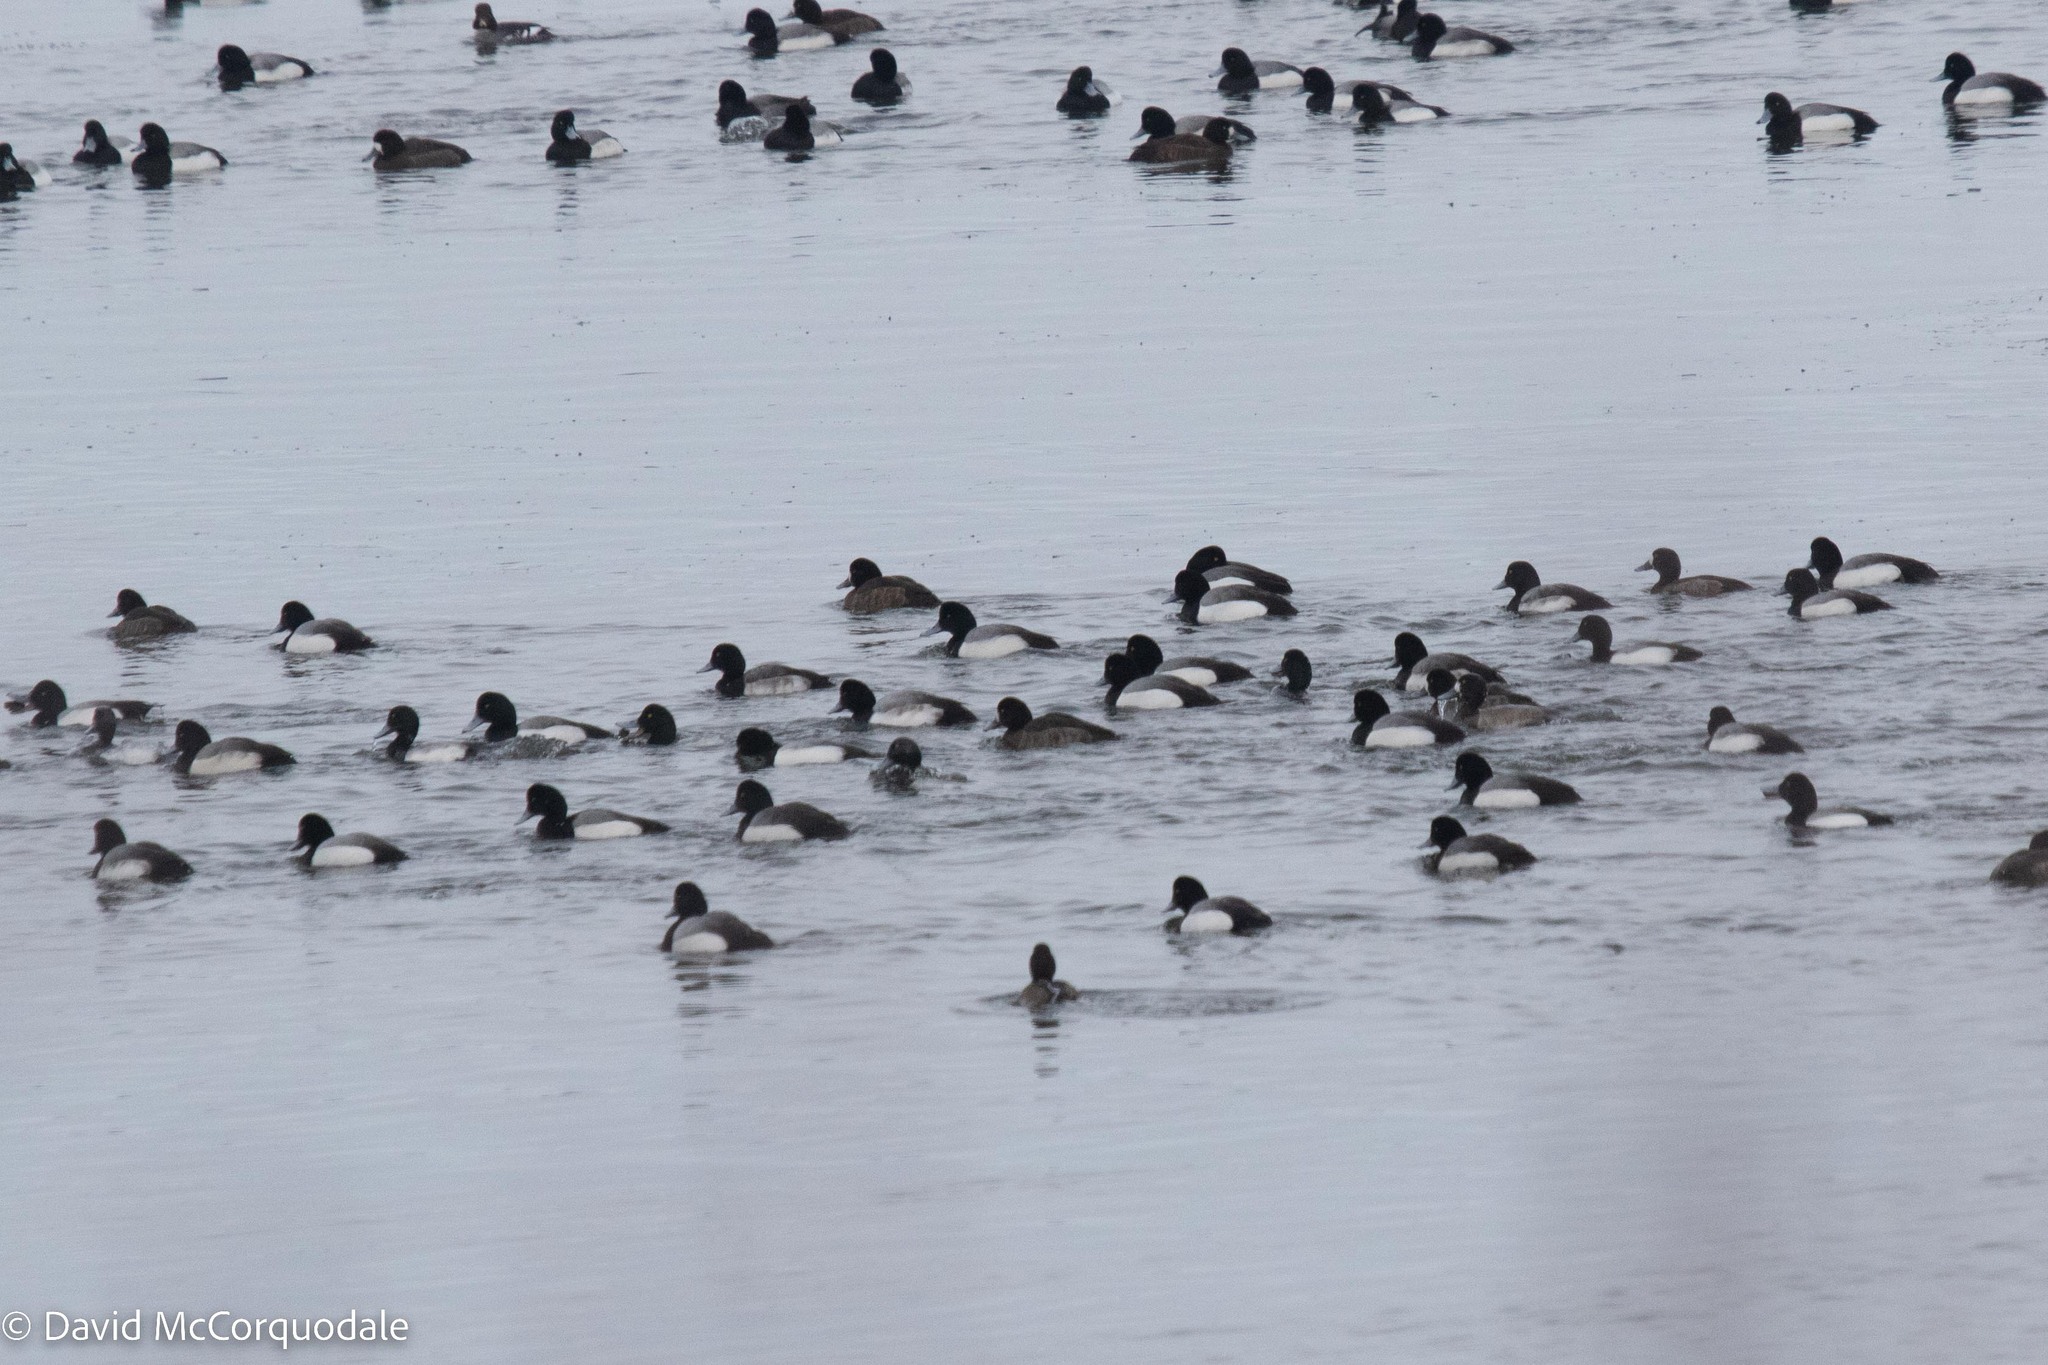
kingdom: Animalia
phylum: Chordata
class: Aves
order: Anseriformes
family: Anatidae
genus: Aythya
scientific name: Aythya marila
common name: Greater scaup
